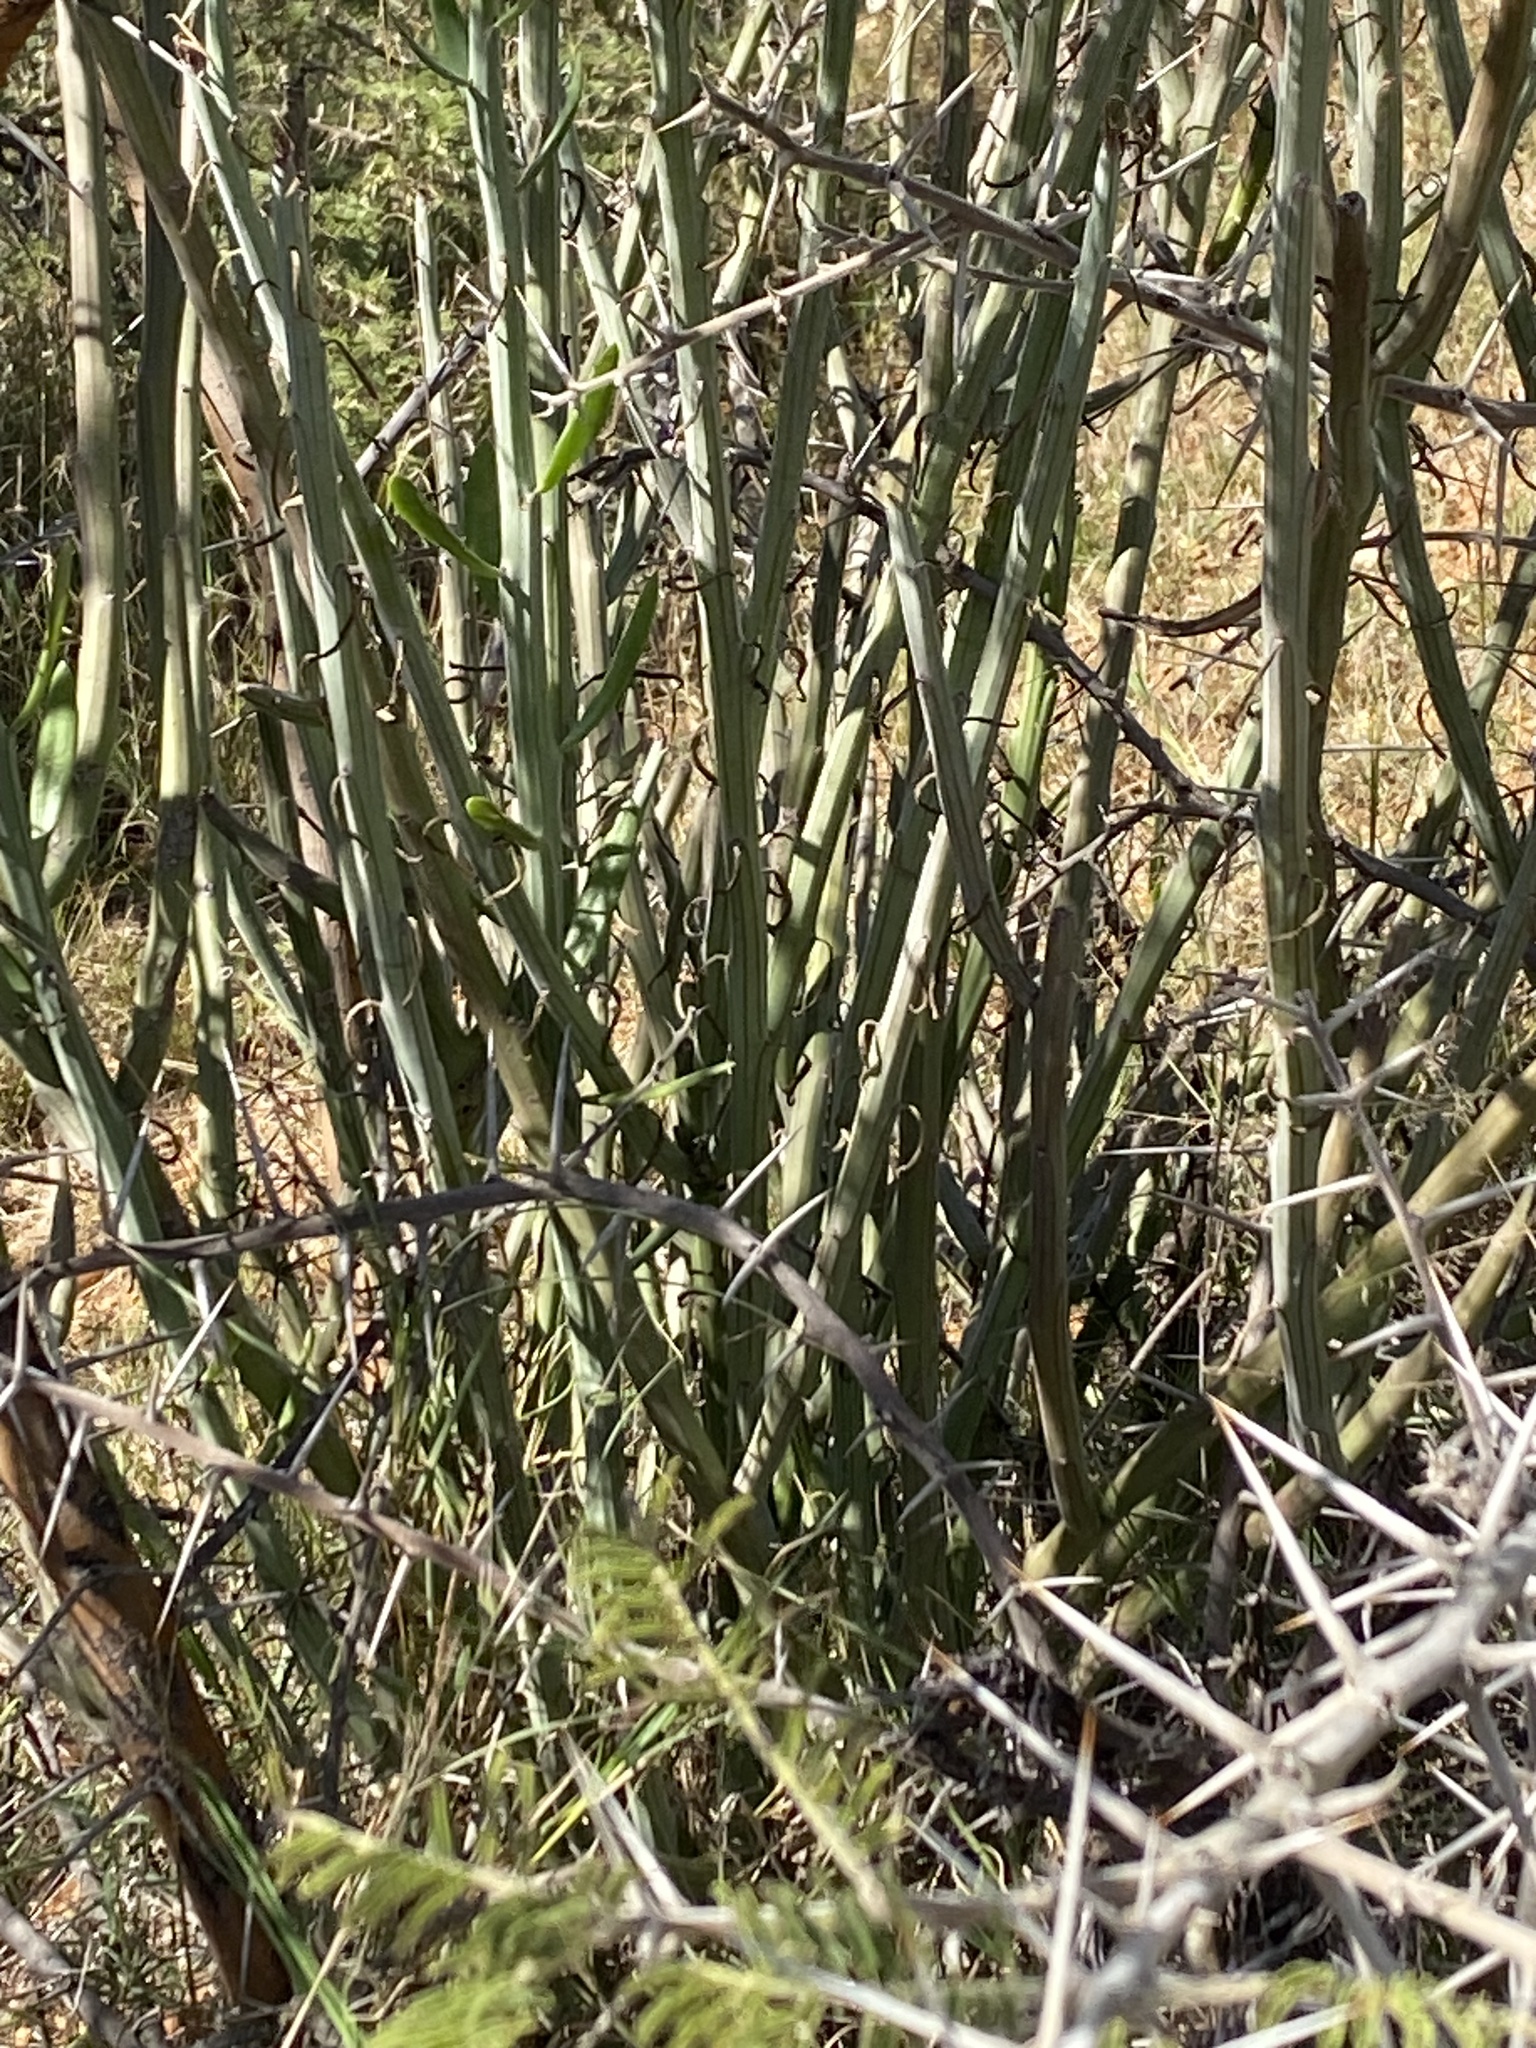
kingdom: Plantae
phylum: Tracheophyta
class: Magnoliopsida
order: Asterales
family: Asteraceae
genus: Curio
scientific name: Curio avasimontanus
